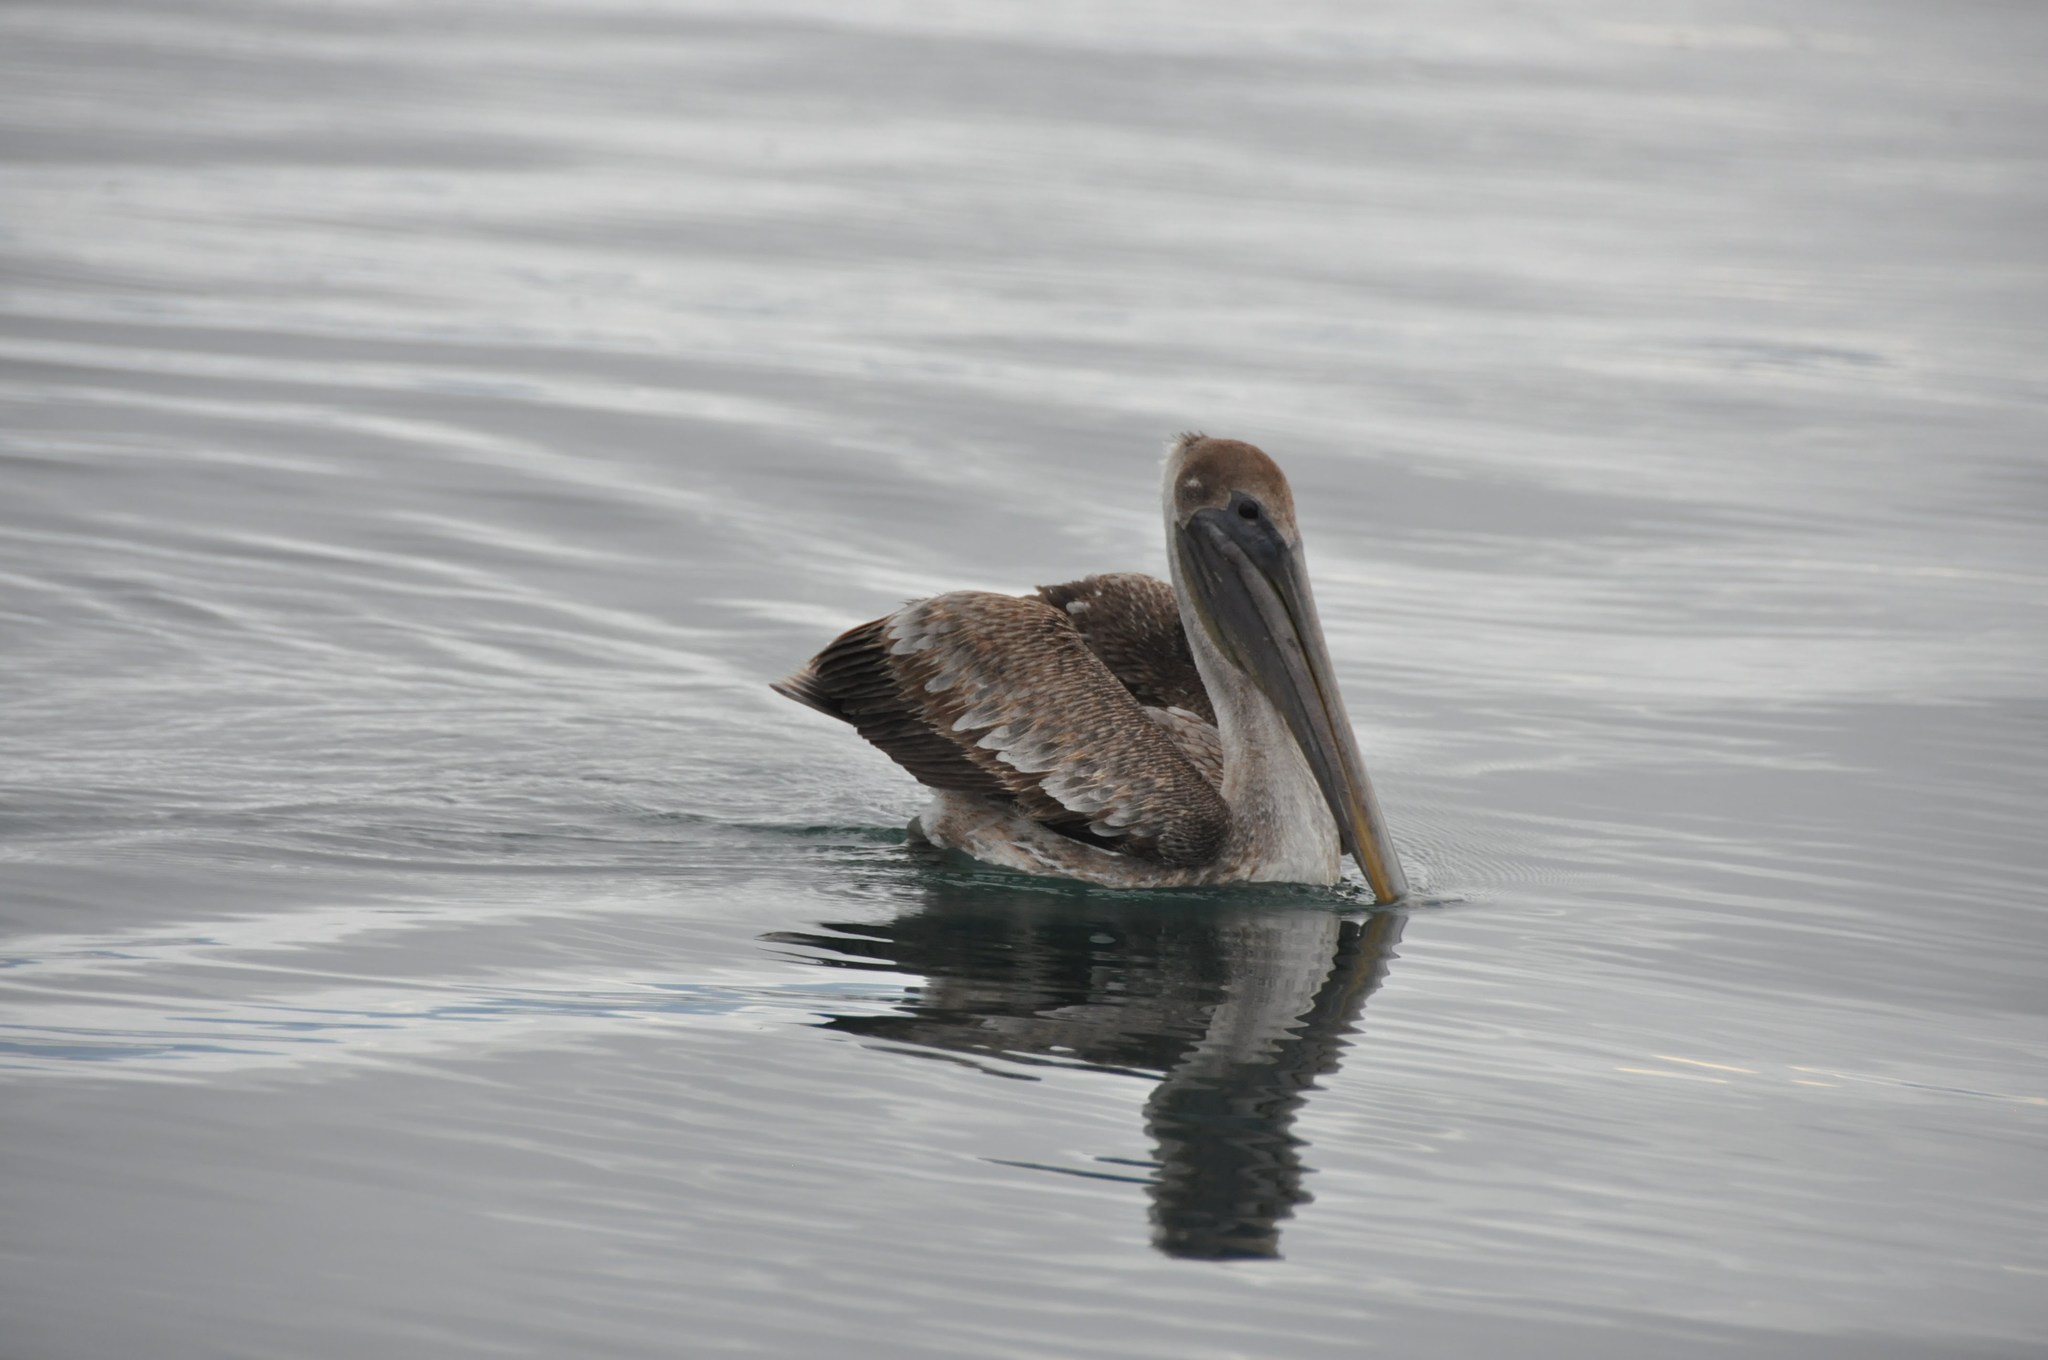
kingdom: Animalia
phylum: Chordata
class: Aves
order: Pelecaniformes
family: Pelecanidae
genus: Pelecanus
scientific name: Pelecanus occidentalis
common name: Brown pelican
